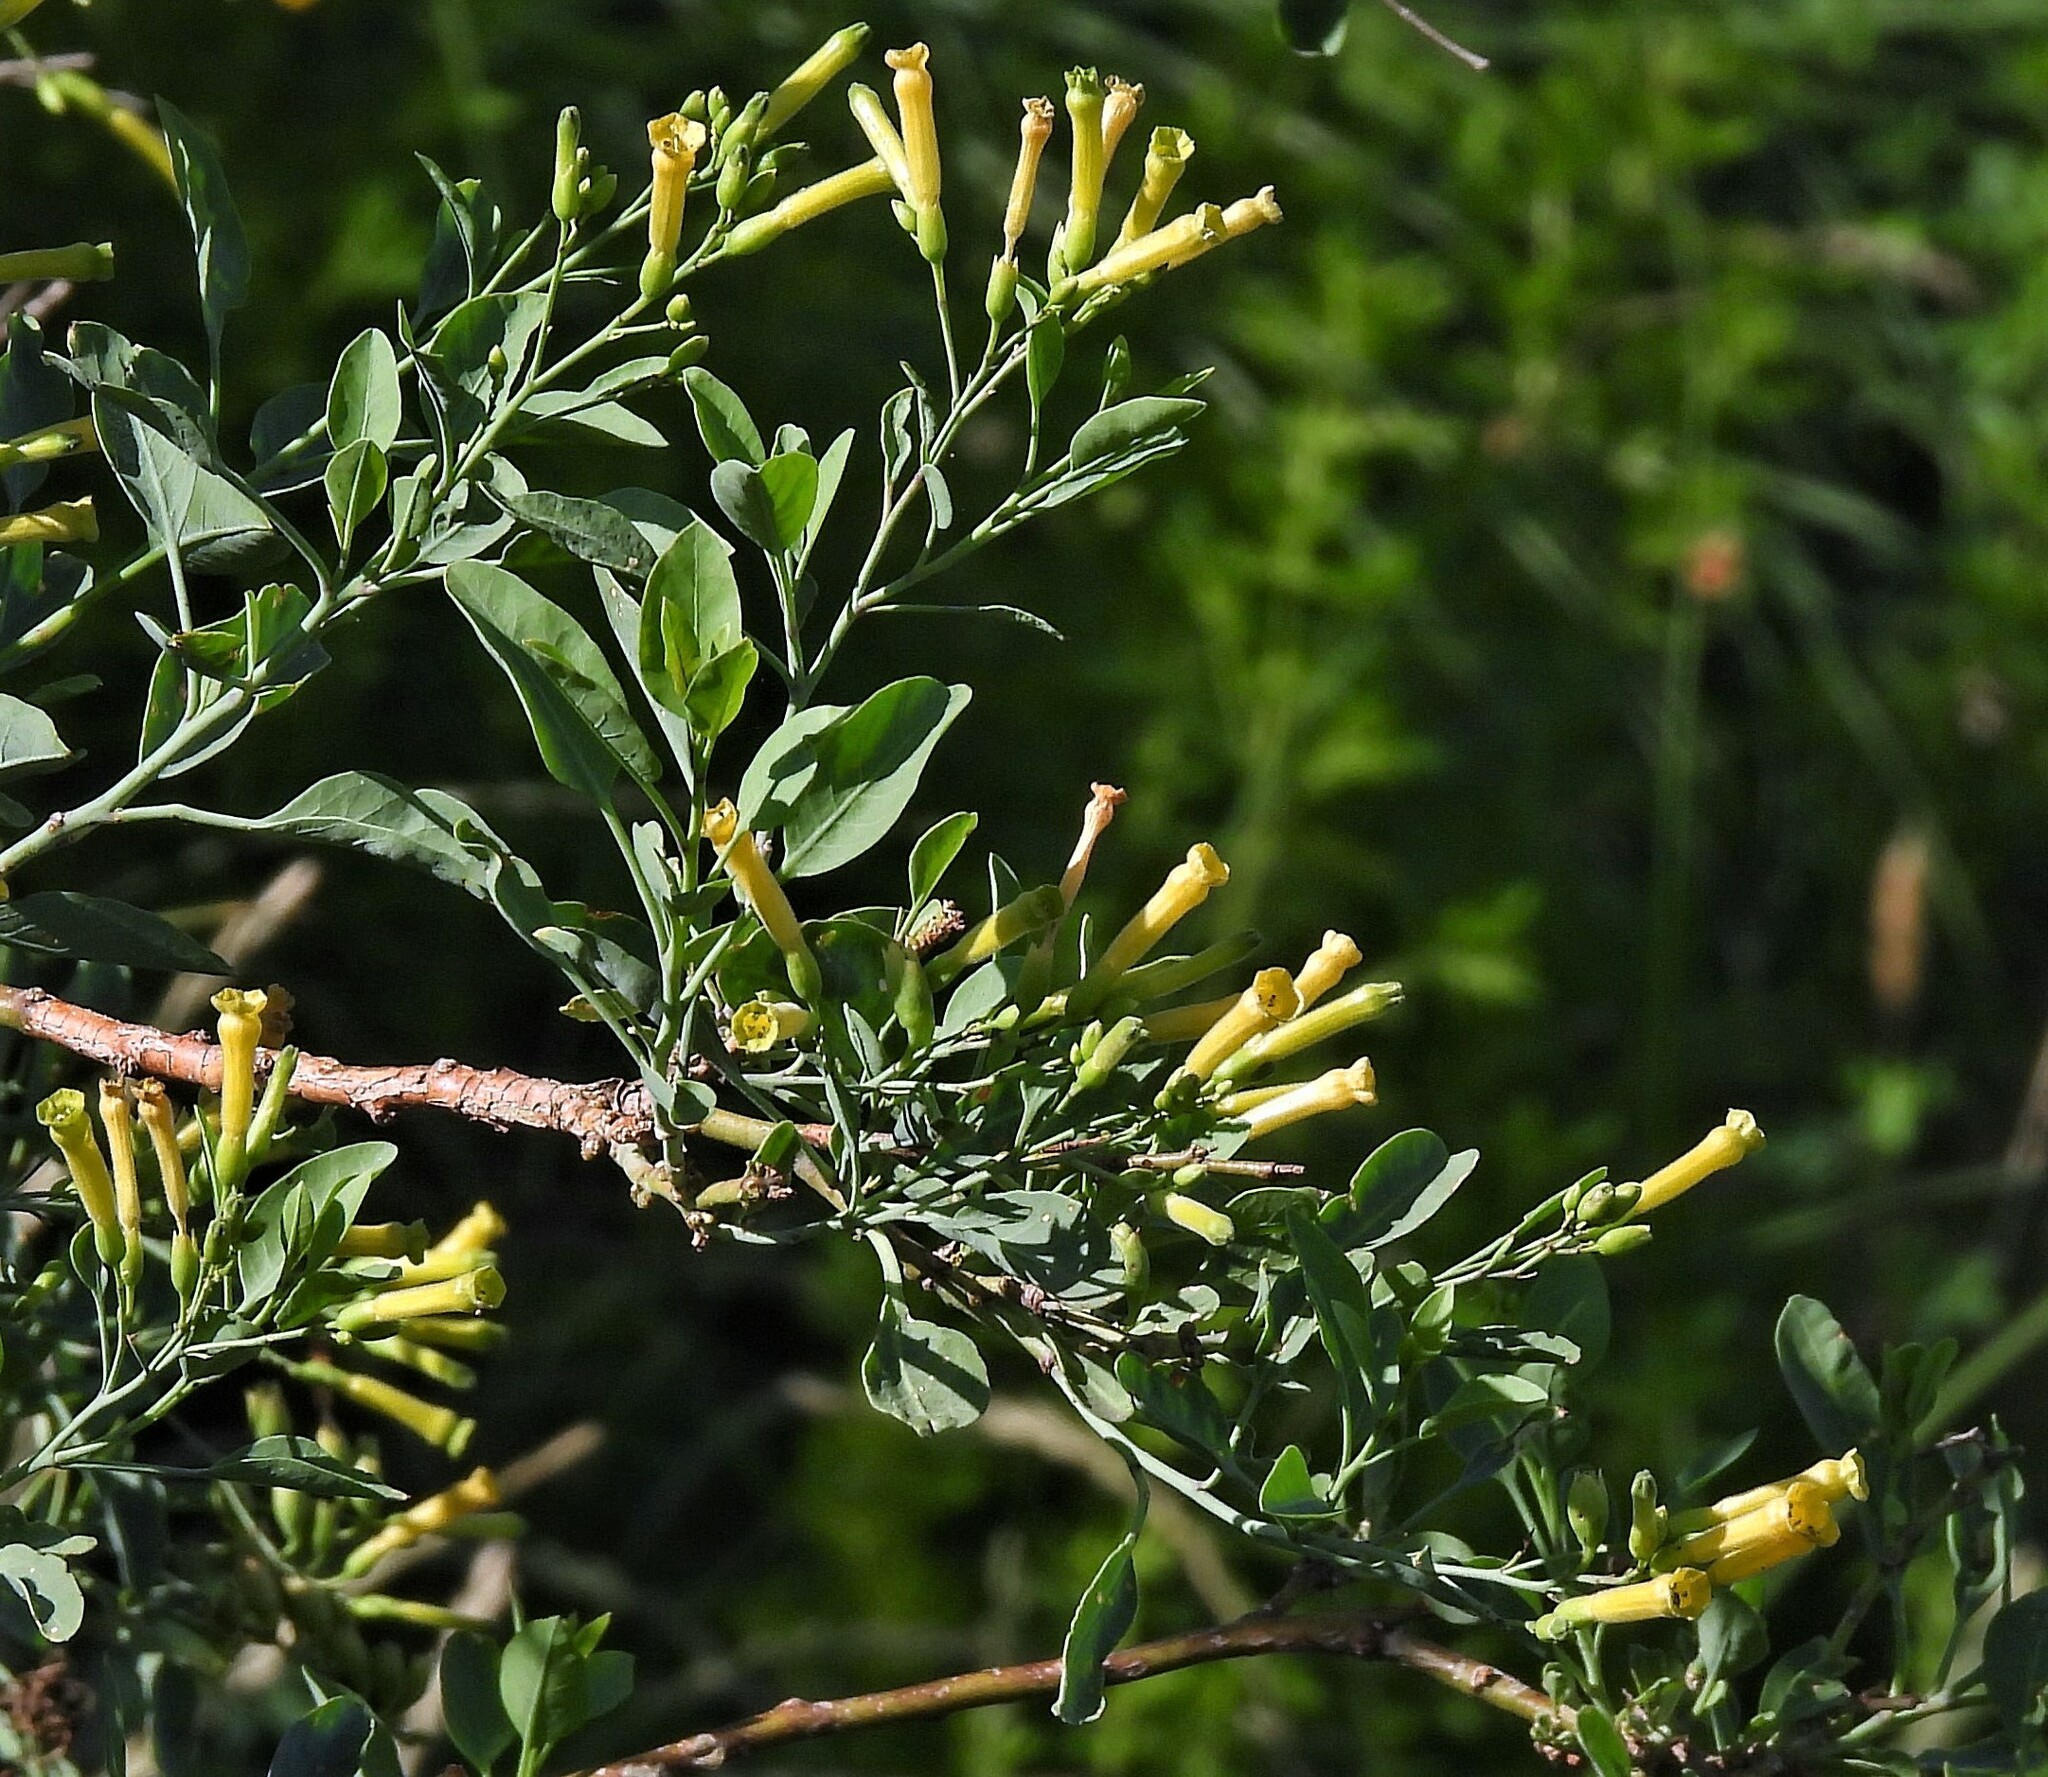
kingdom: Plantae
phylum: Tracheophyta
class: Magnoliopsida
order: Solanales
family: Solanaceae
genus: Nicotiana
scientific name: Nicotiana glauca
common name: Tree tobacco
